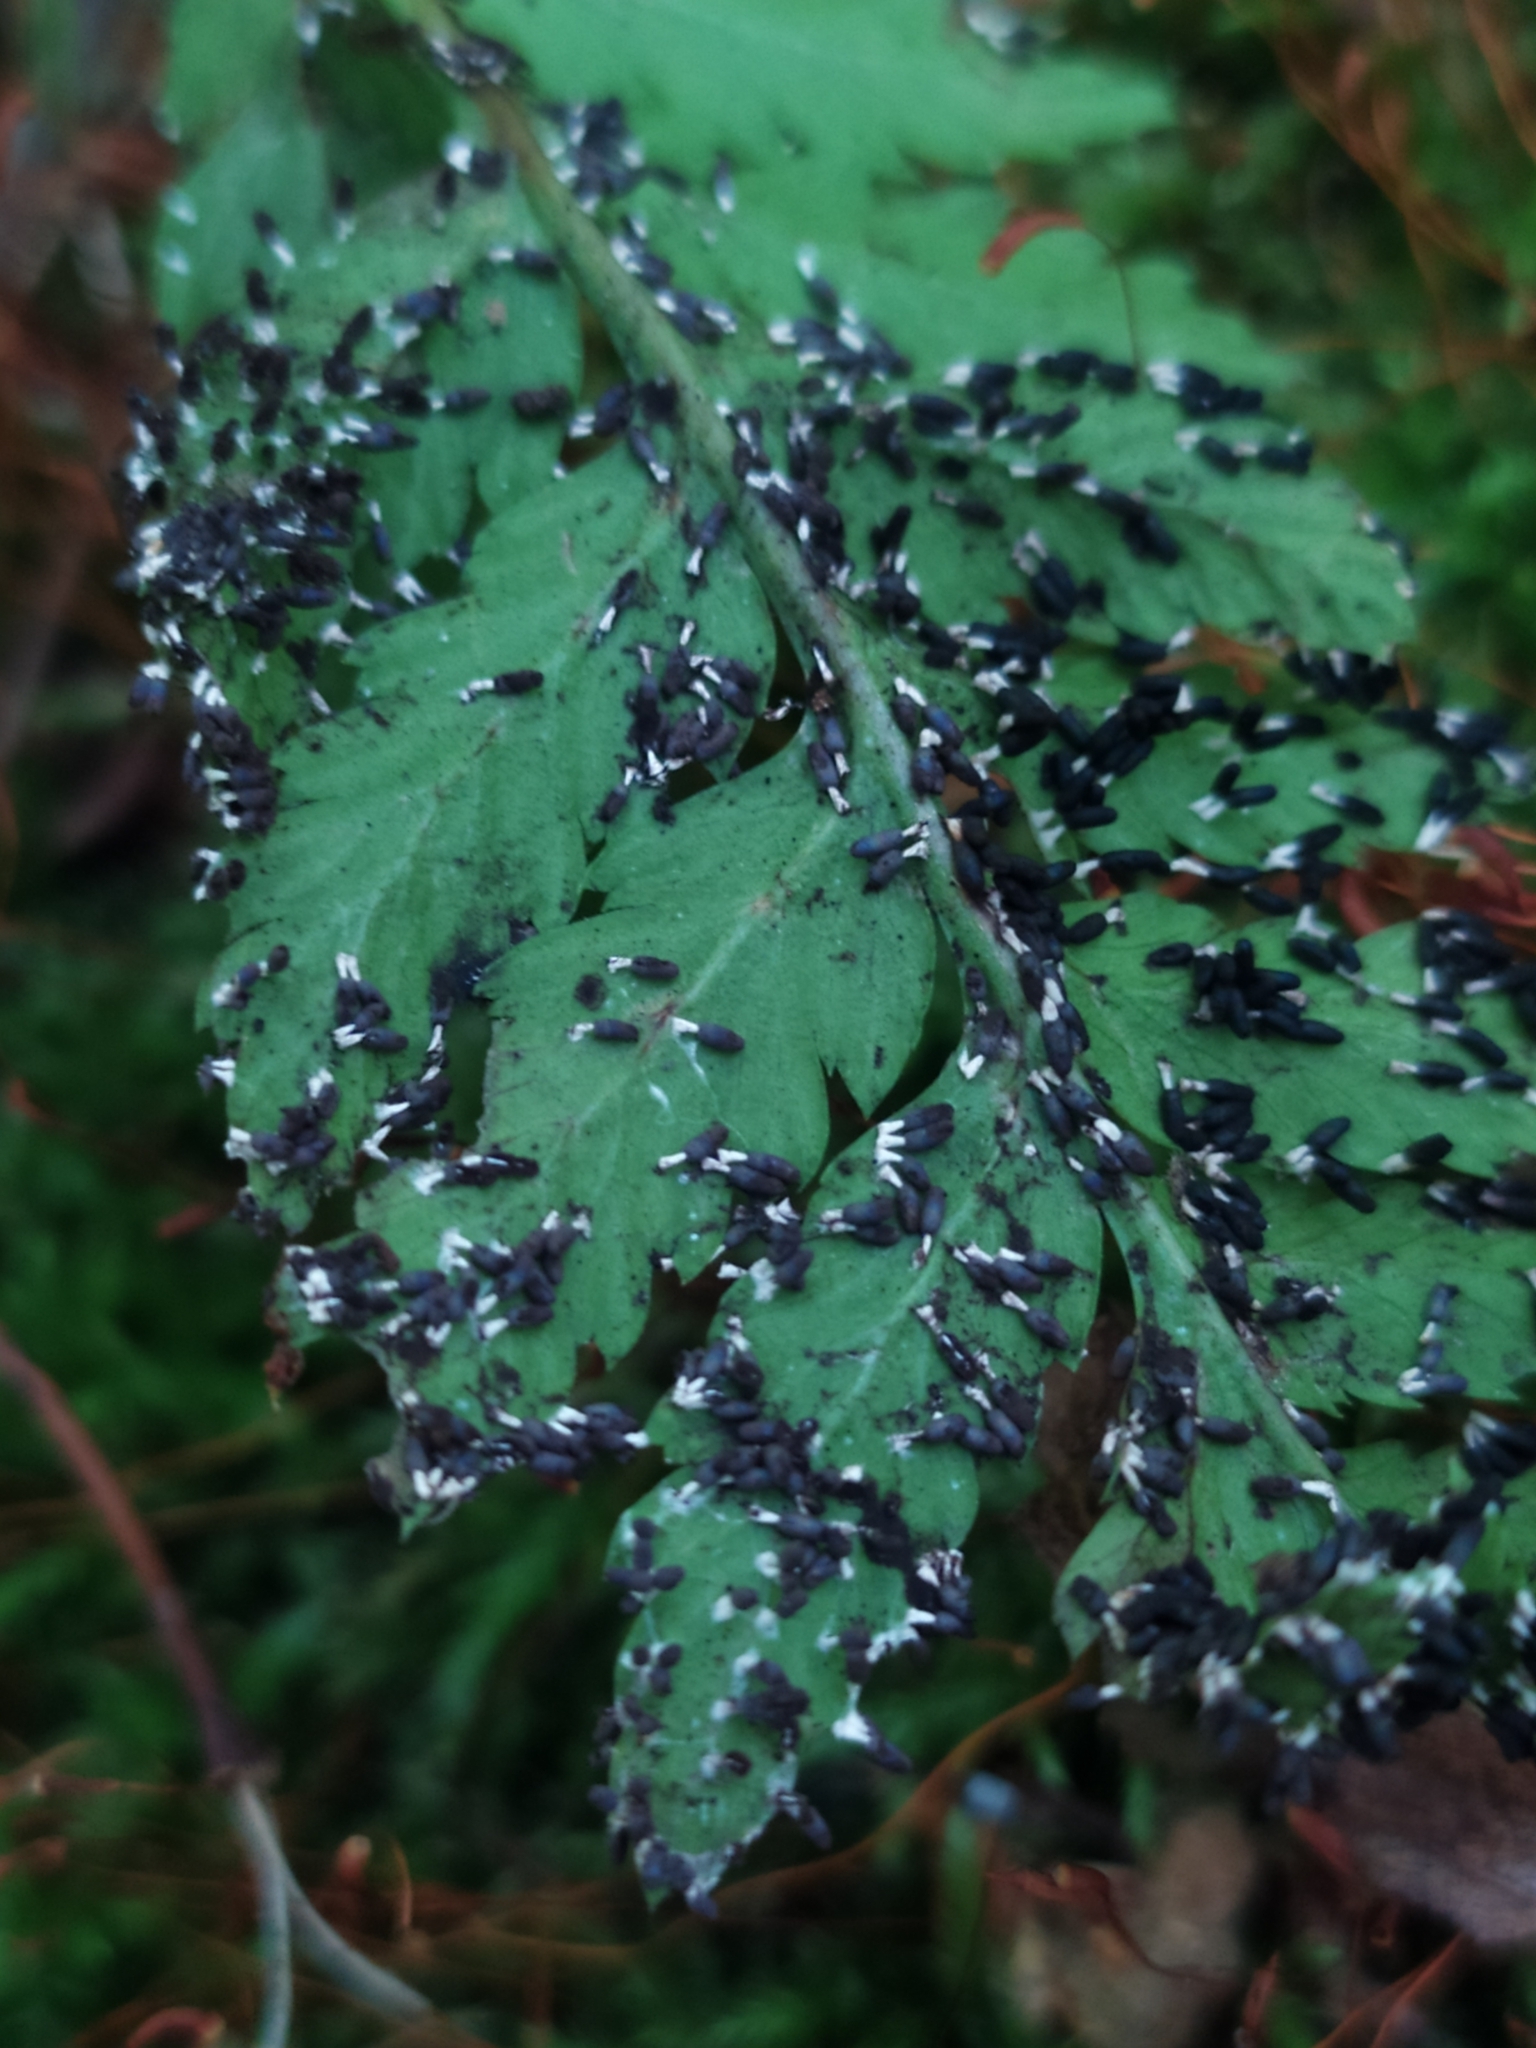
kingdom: Protozoa
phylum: Mycetozoa
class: Myxomycetes
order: Physarales
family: Didymiaceae
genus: Diachea
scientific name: Diachea leucopodia
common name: White-footed slime
